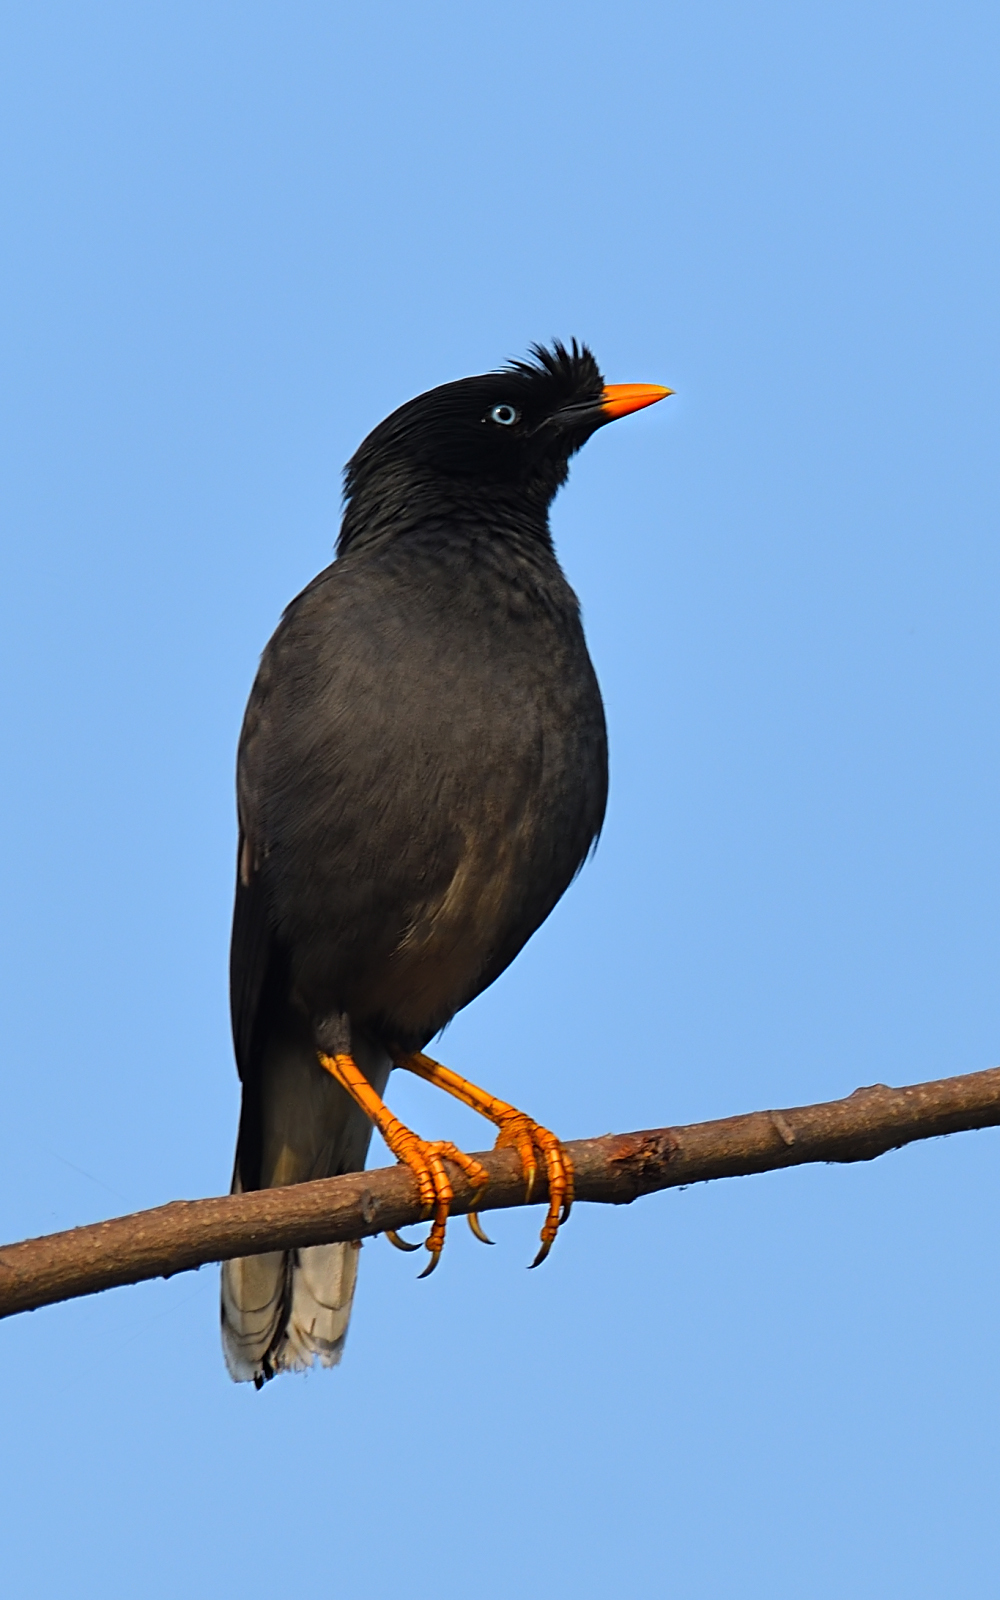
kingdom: Animalia
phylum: Chordata
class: Aves
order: Passeriformes
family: Sturnidae
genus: Acridotheres
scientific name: Acridotheres fuscus
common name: Jungle myna
